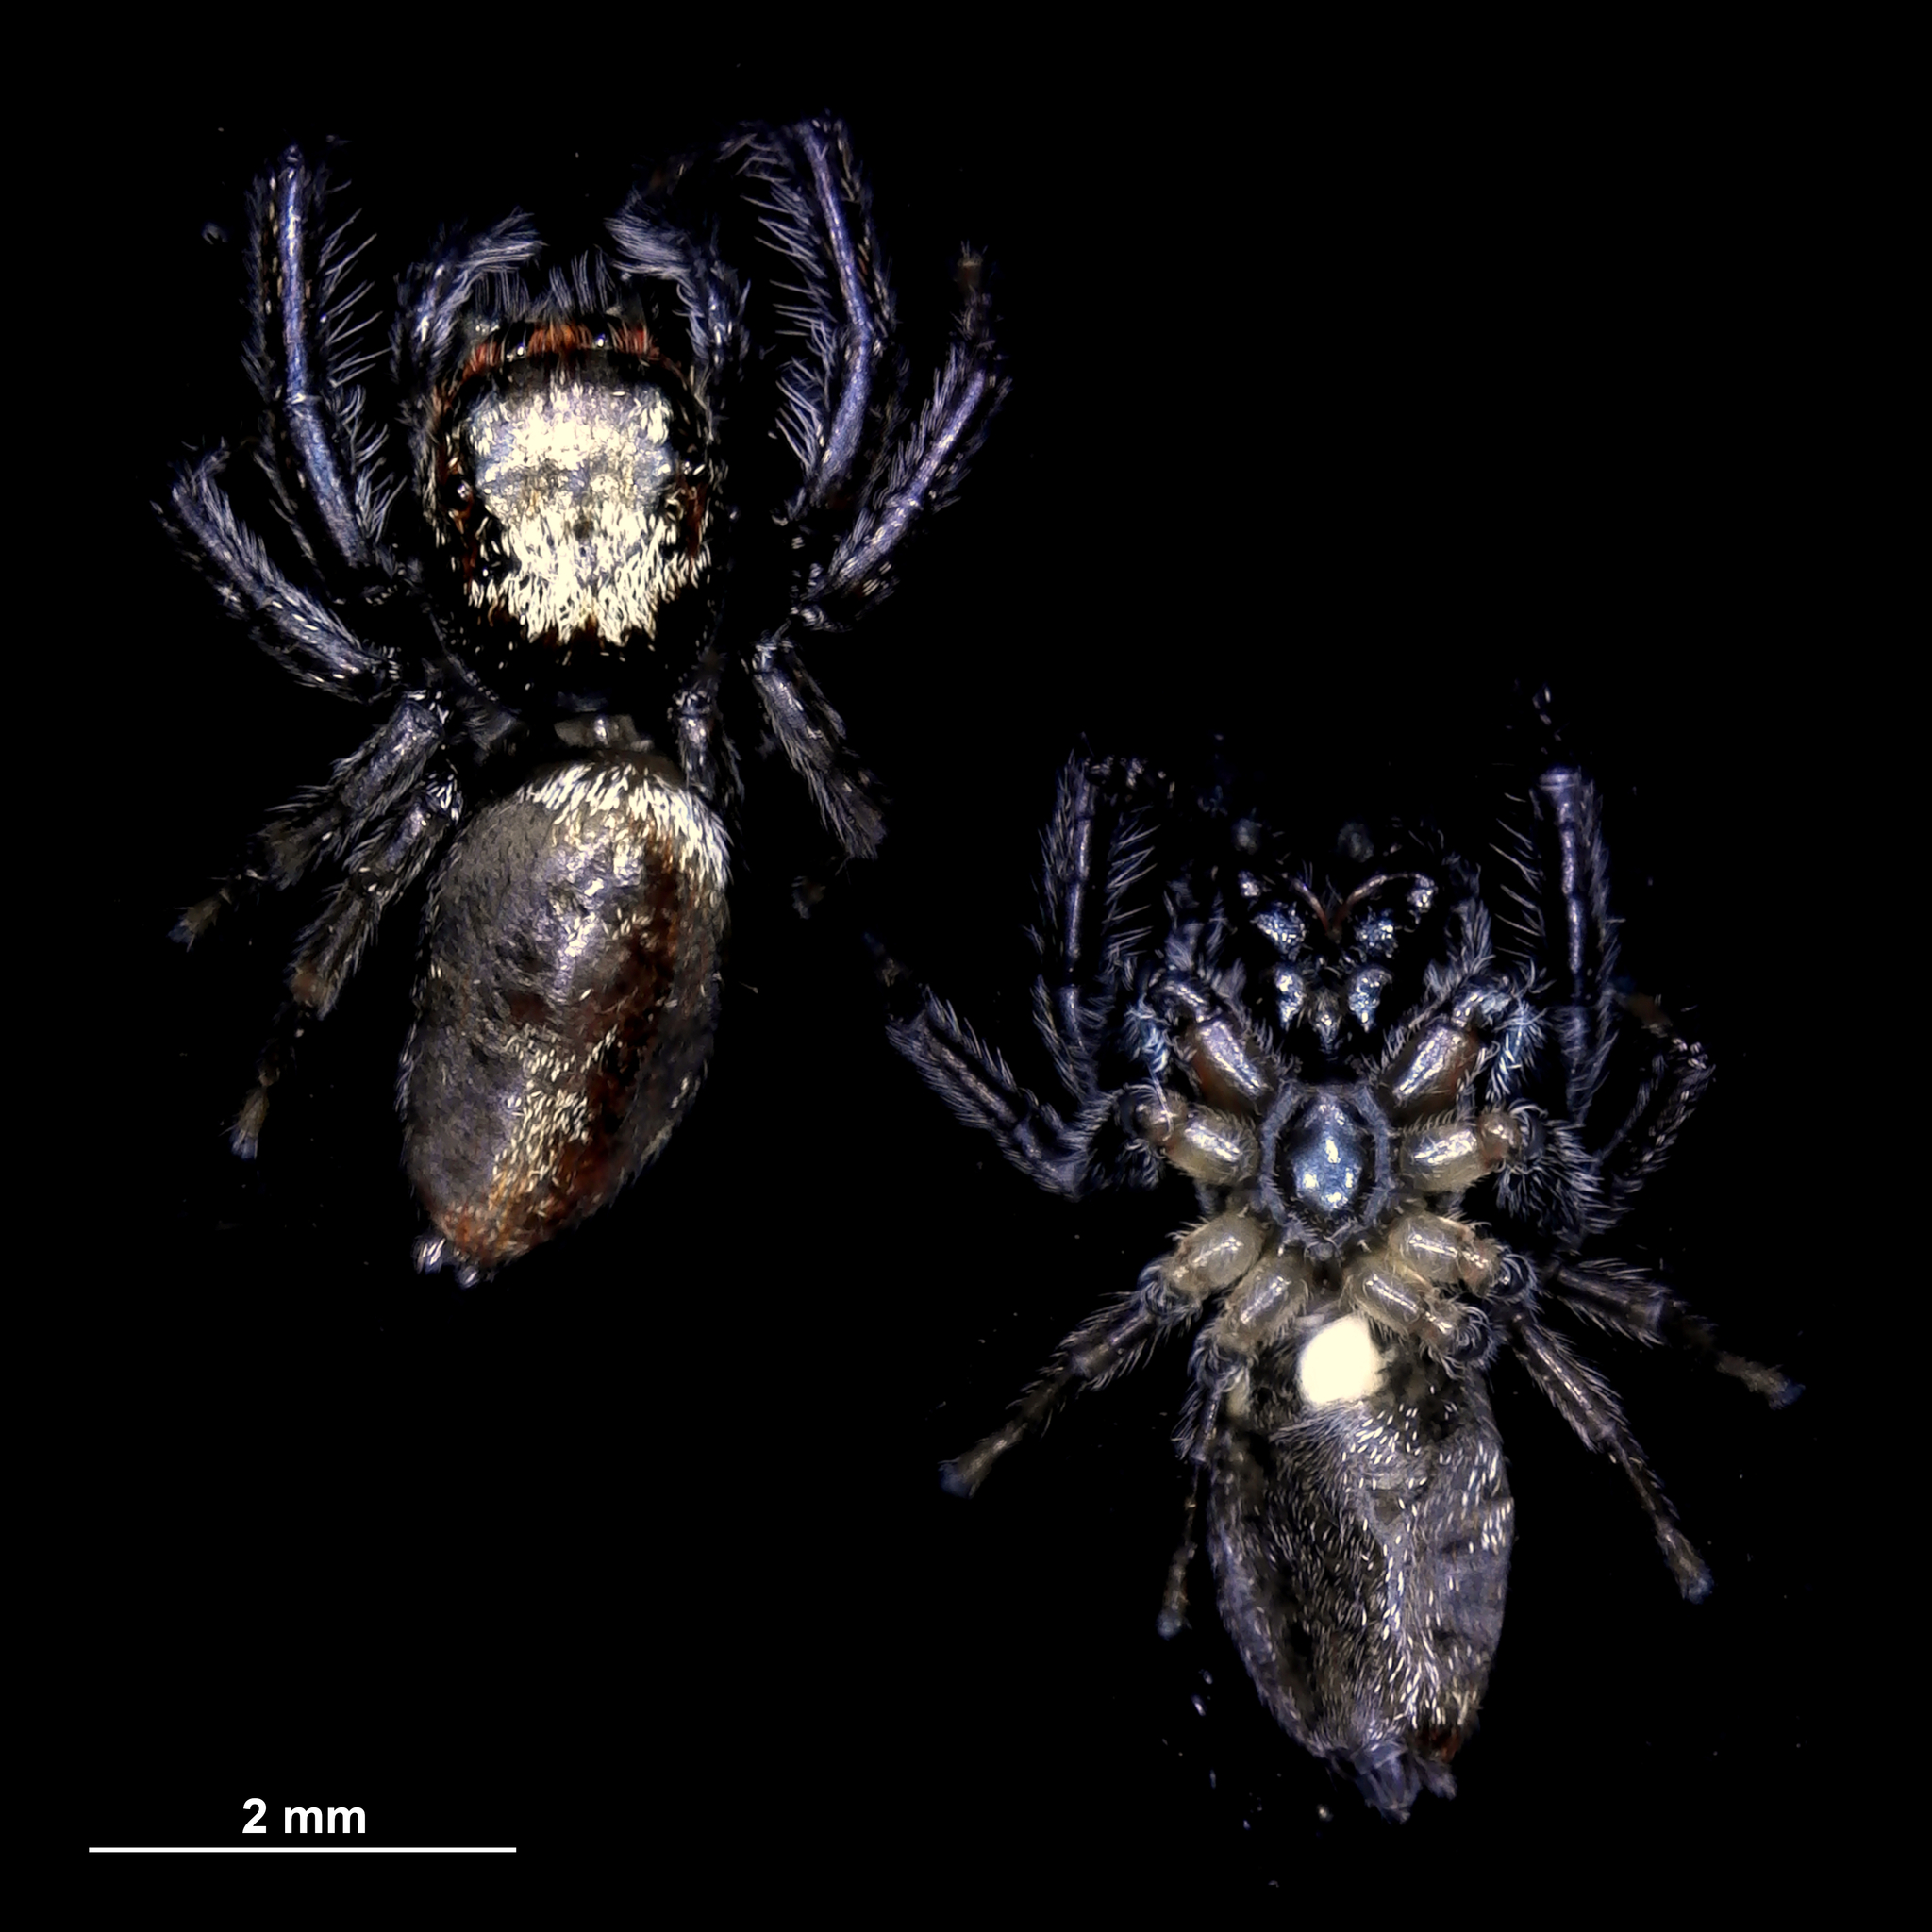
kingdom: Animalia
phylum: Arthropoda
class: Arachnida
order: Araneae
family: Salticidae
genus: Maratus
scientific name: Maratus griseus
